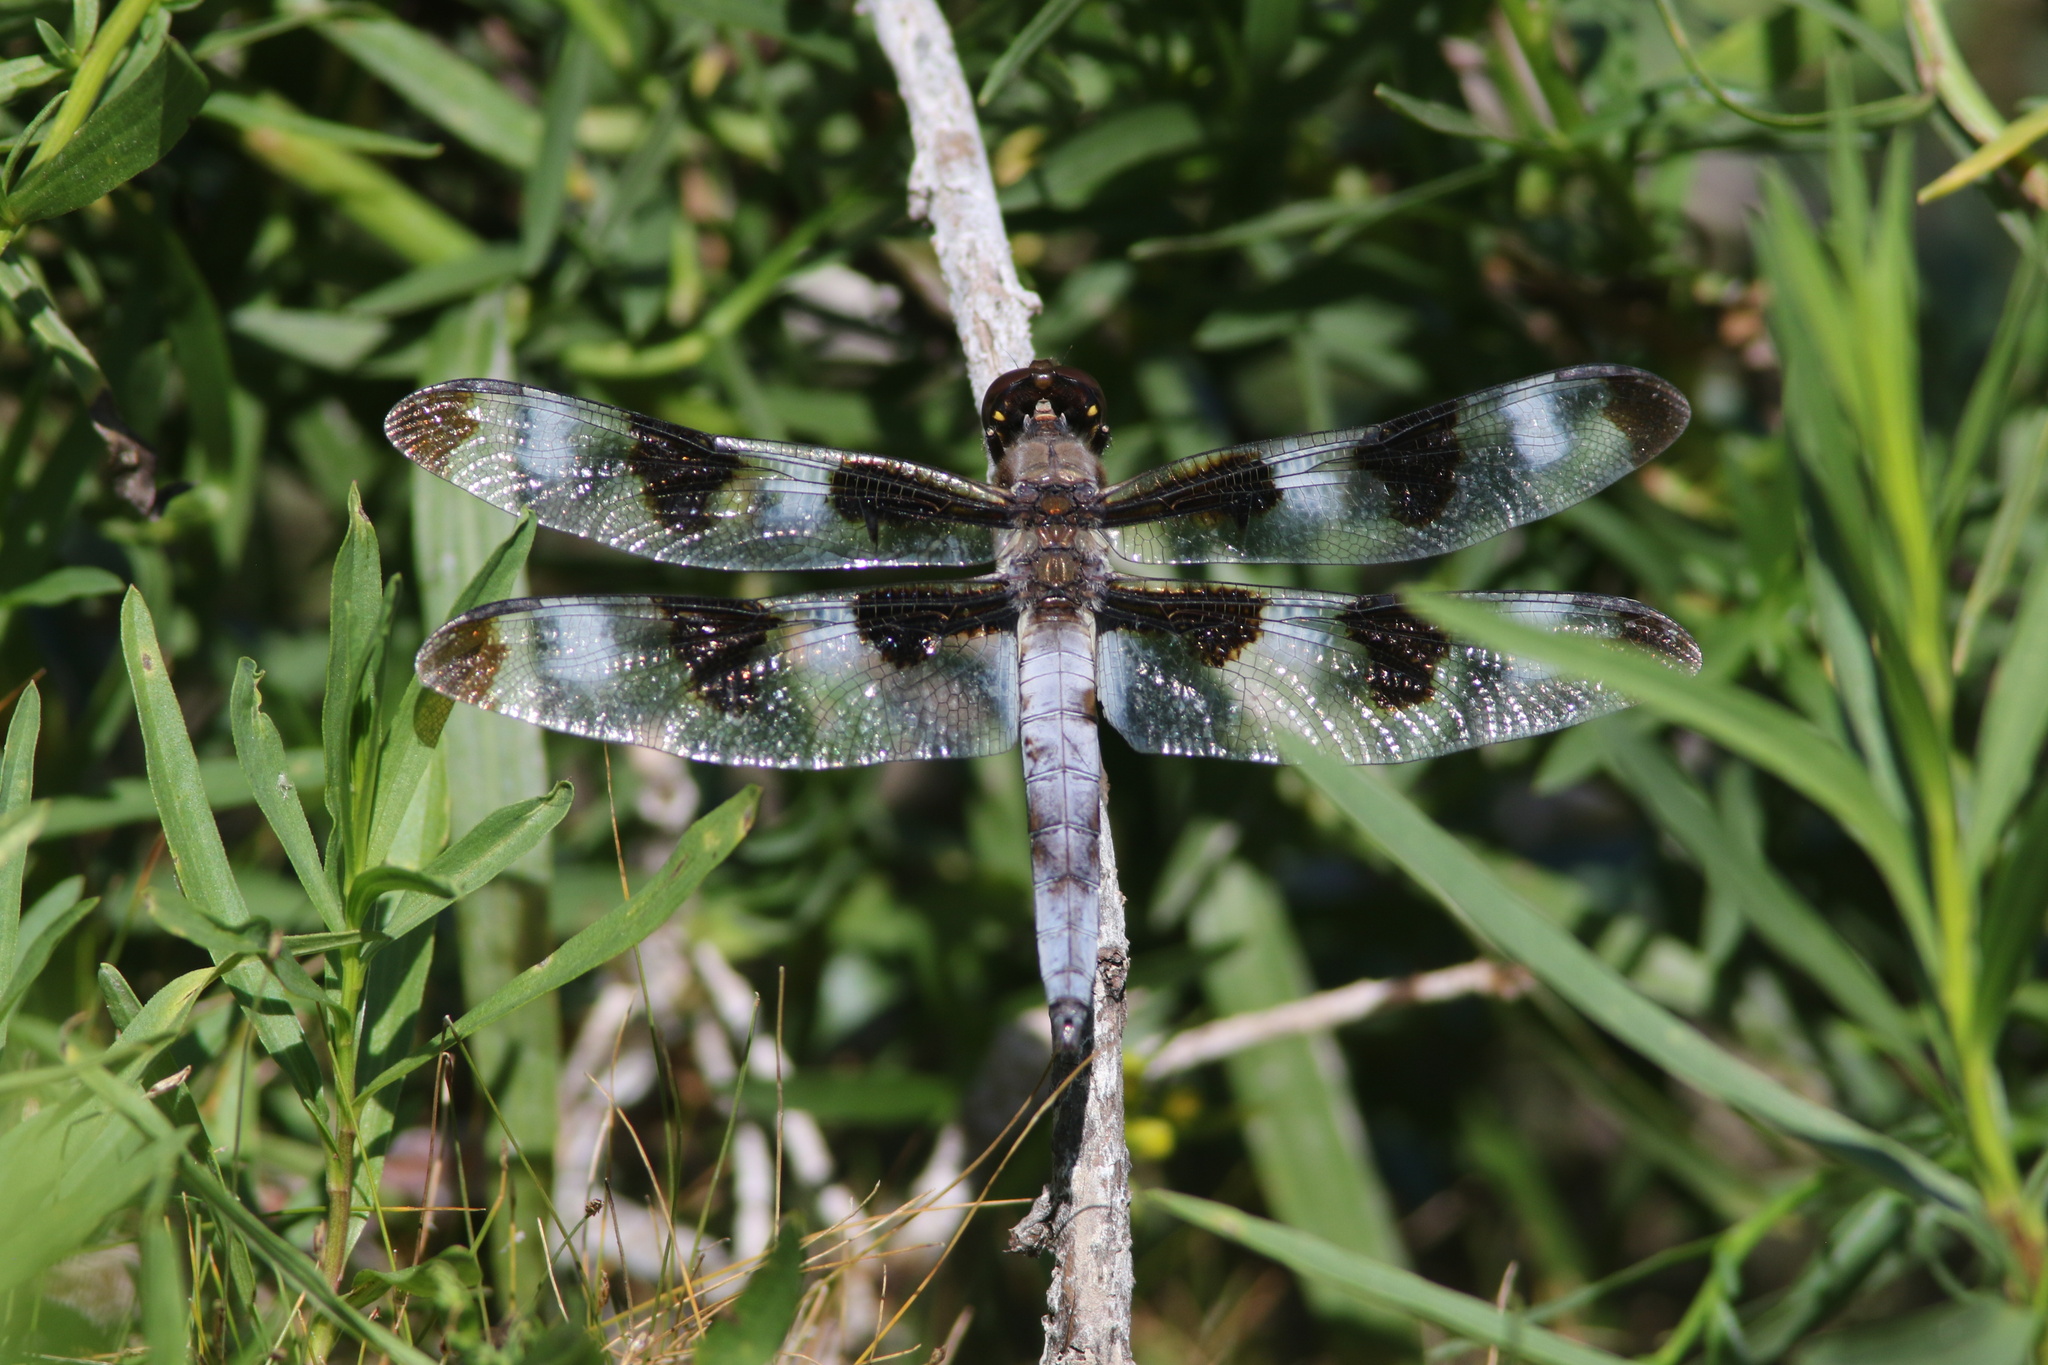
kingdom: Animalia
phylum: Arthropoda
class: Insecta
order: Odonata
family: Libellulidae
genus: Libellula
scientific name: Libellula pulchella
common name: Twelve-spotted skimmer
